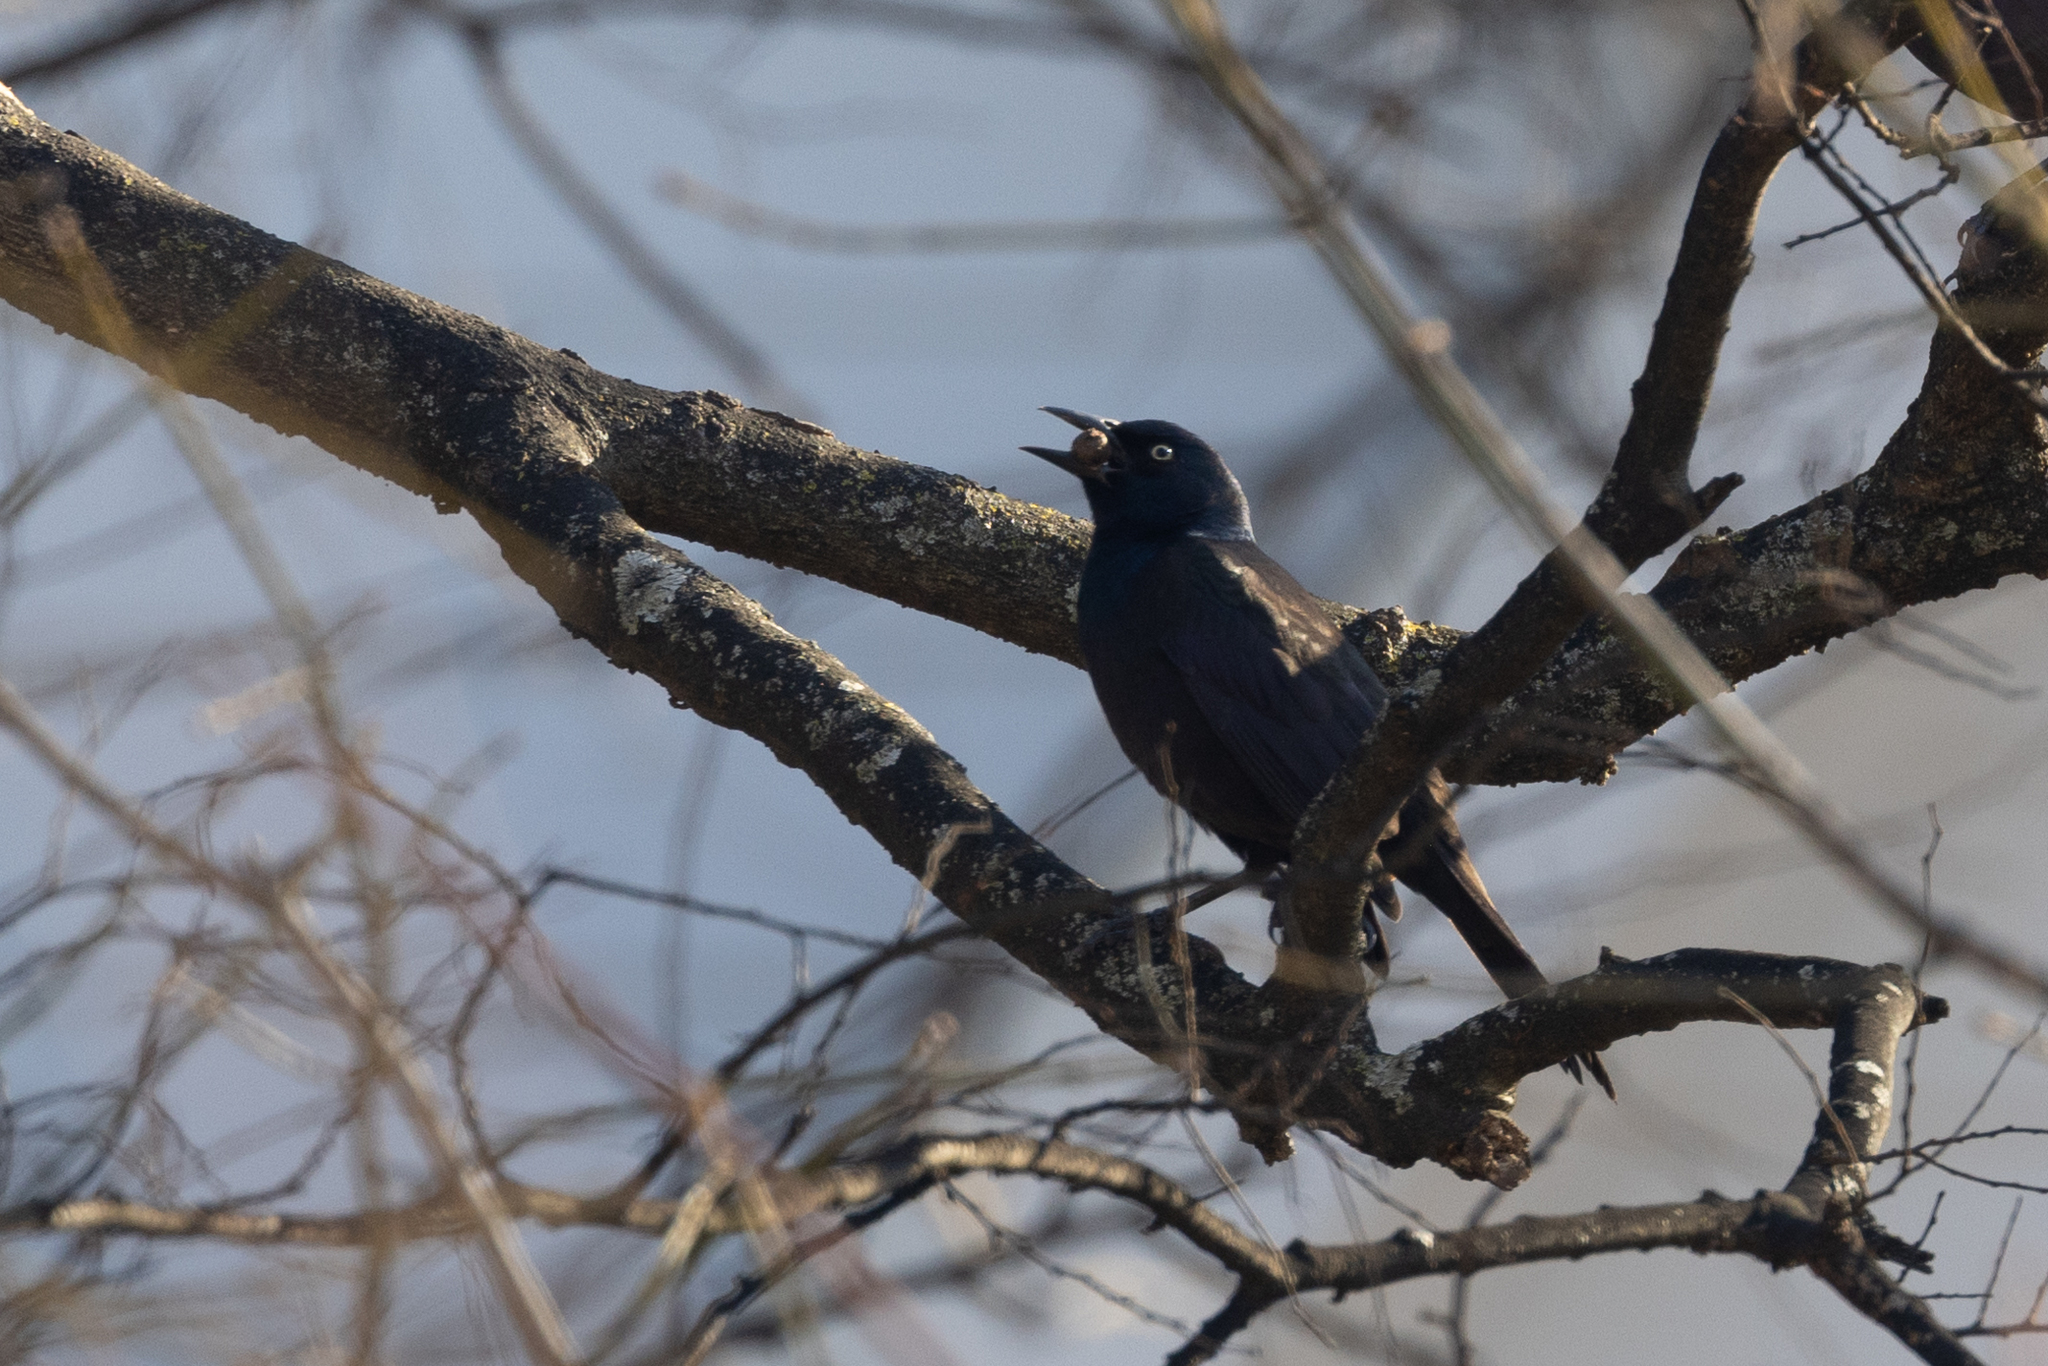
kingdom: Animalia
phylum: Chordata
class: Aves
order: Passeriformes
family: Icteridae
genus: Quiscalus
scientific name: Quiscalus quiscula
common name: Common grackle
